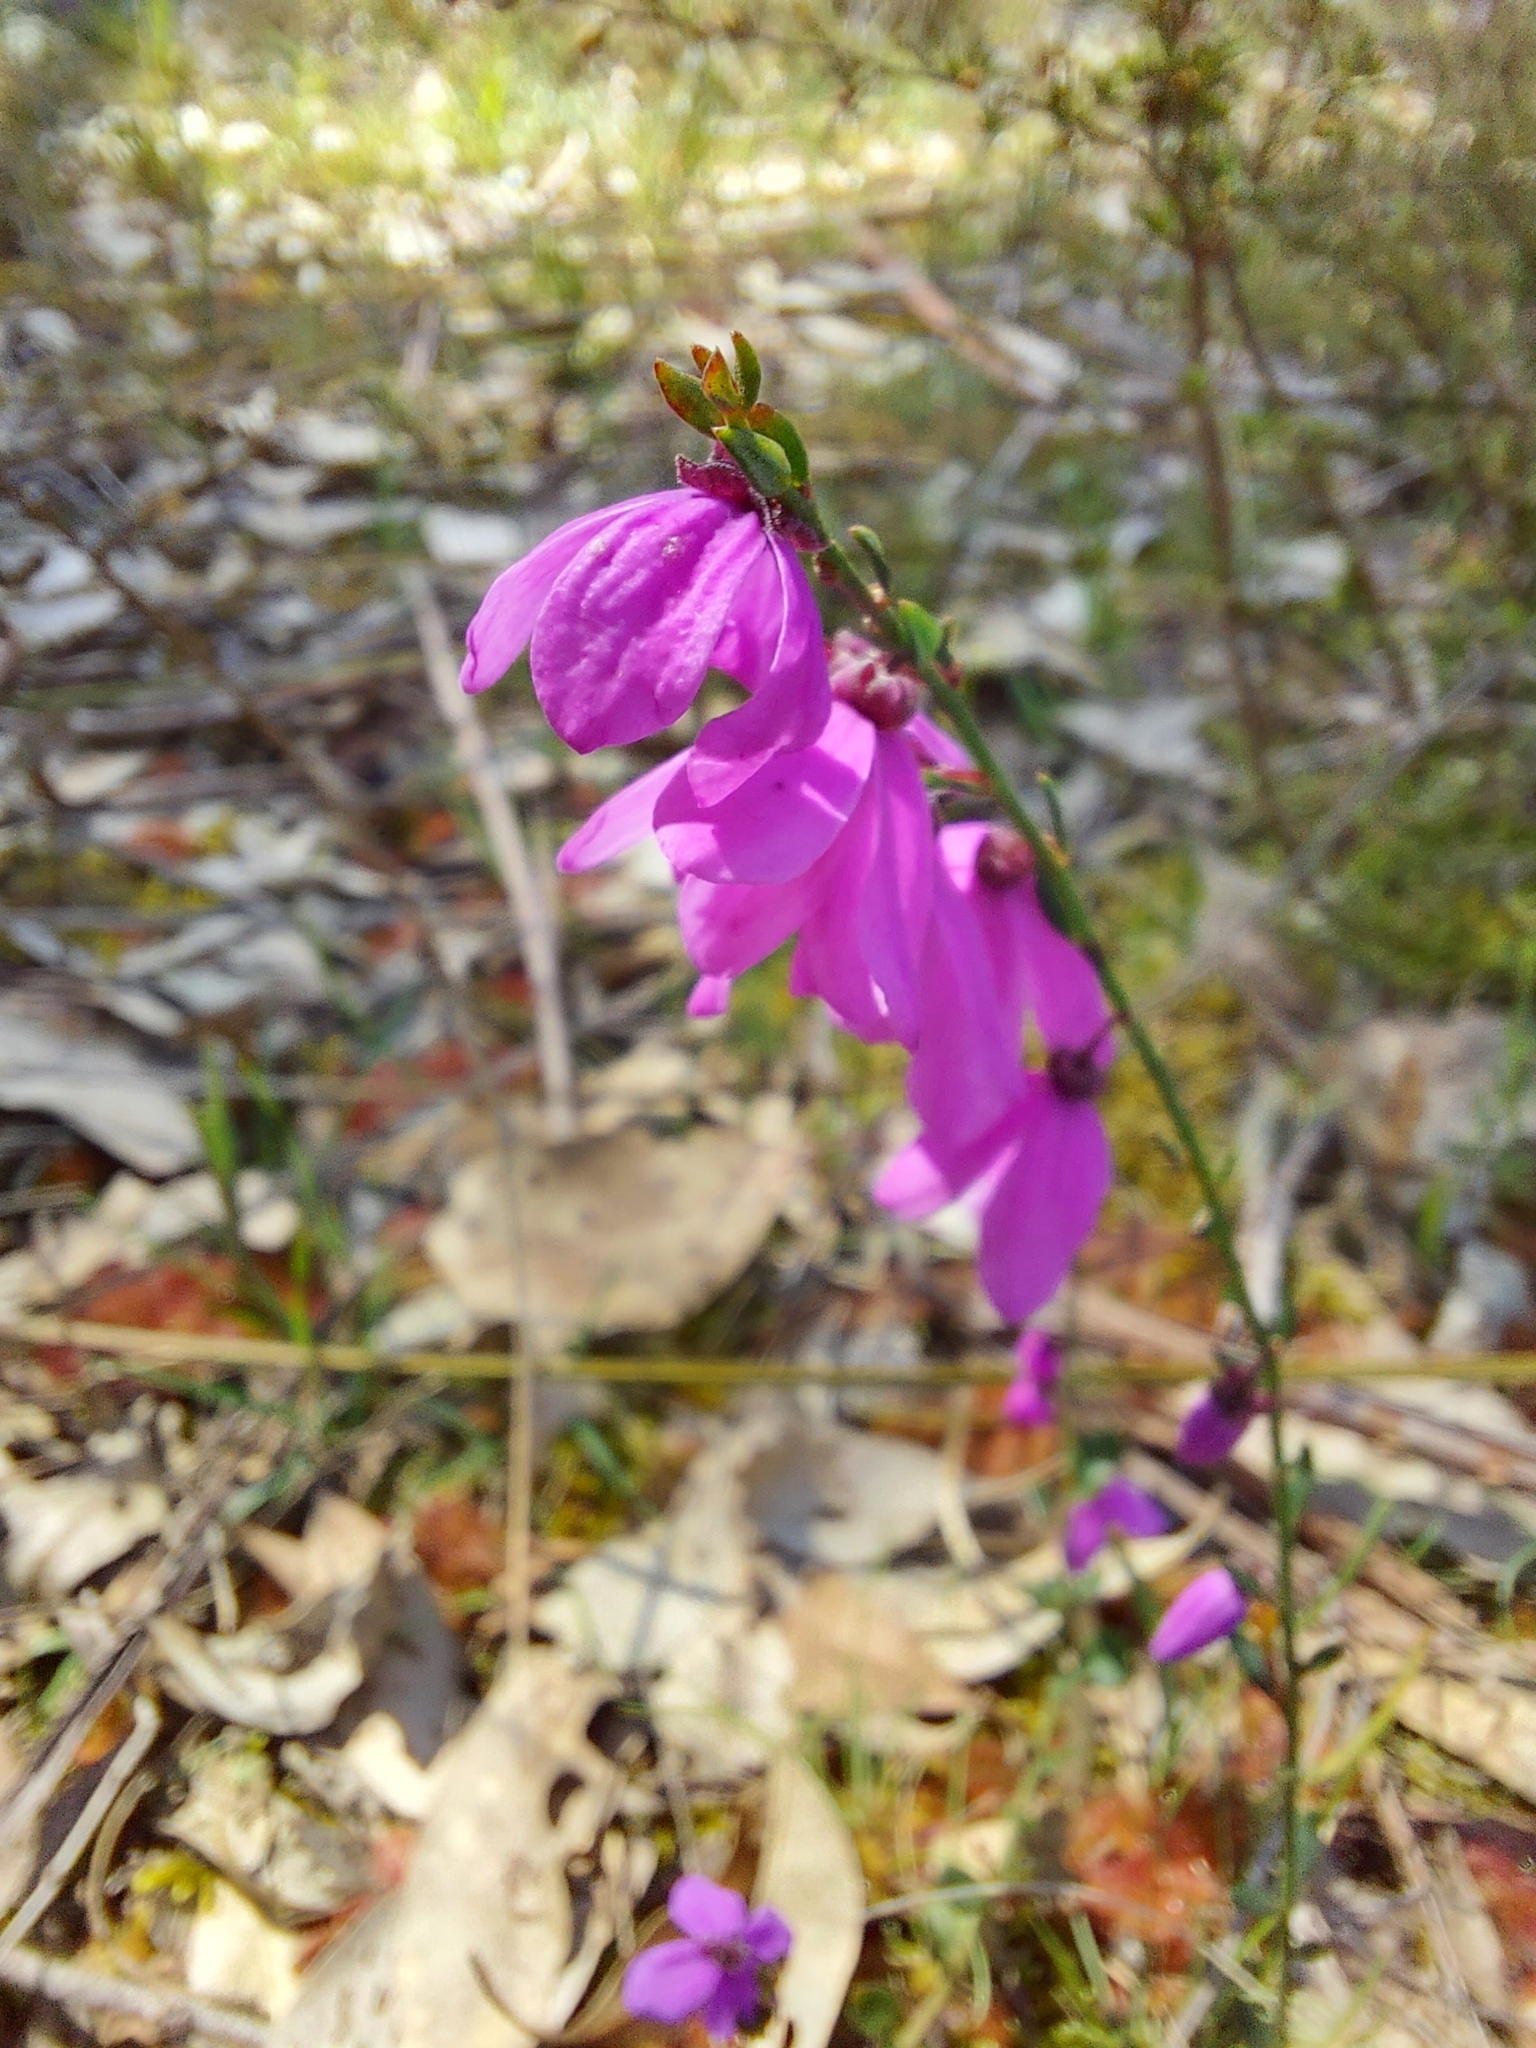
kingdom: Plantae
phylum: Tracheophyta
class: Magnoliopsida
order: Oxalidales
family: Elaeocarpaceae
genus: Tetratheca
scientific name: Tetratheca ciliata
